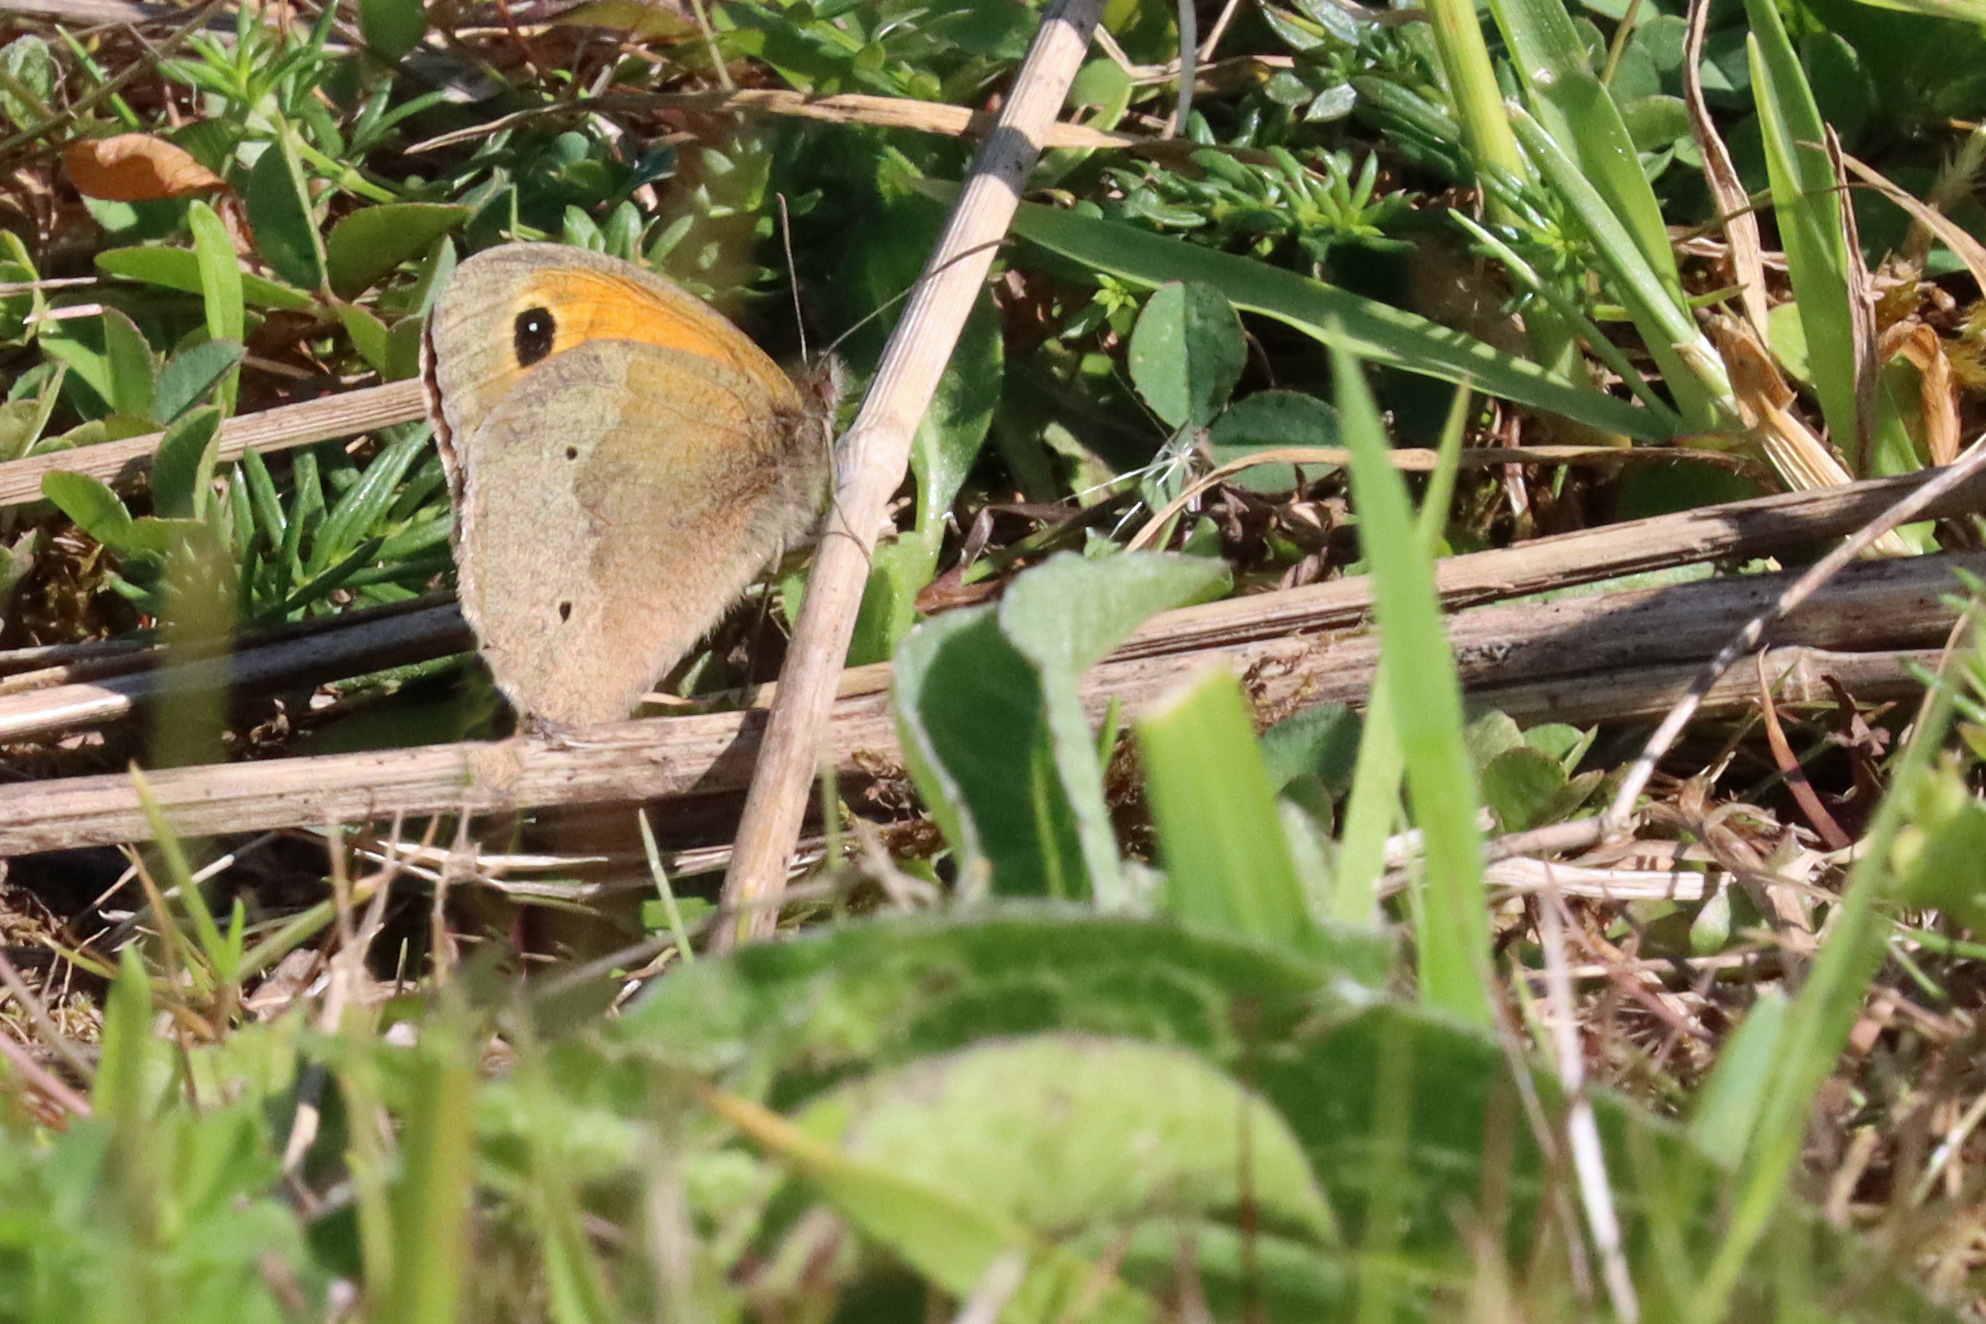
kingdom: Animalia
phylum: Arthropoda
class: Insecta
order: Lepidoptera
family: Nymphalidae
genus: Maniola
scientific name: Maniola jurtina
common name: Meadow brown
